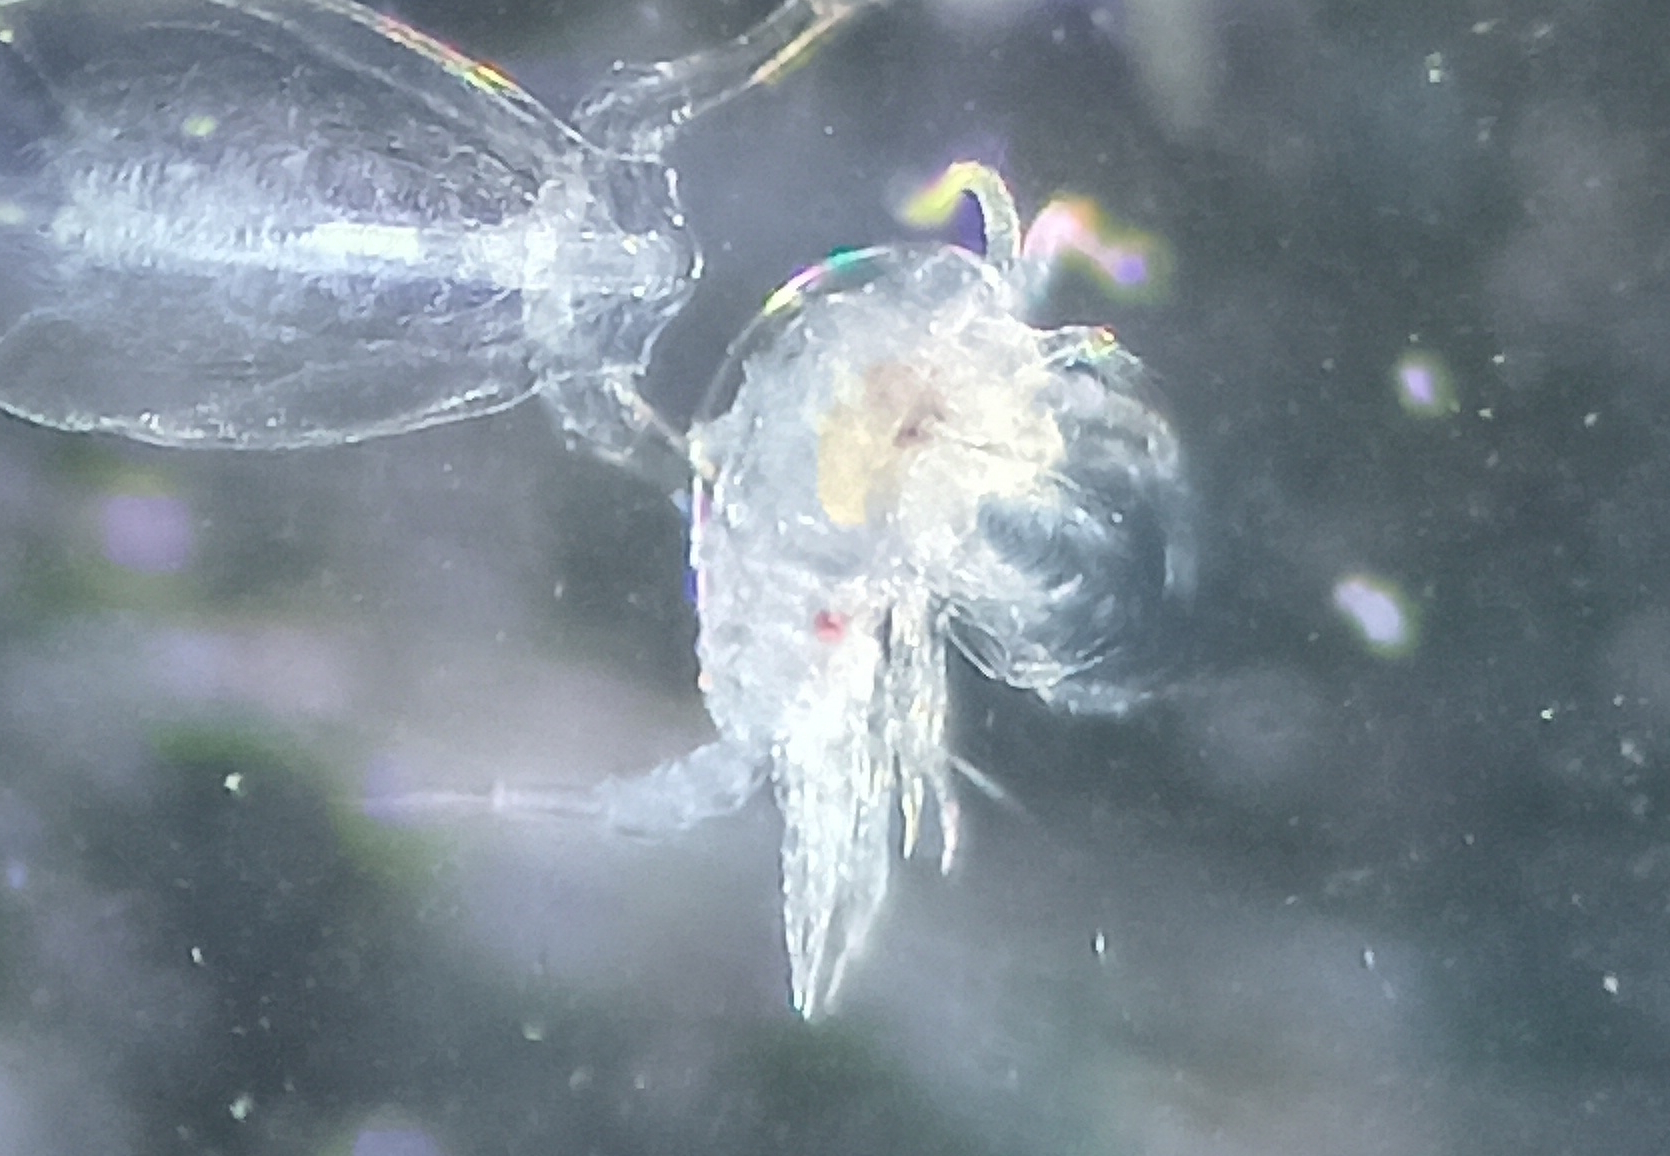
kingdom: Animalia
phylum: Arthropoda
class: Copepoda
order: Calanoida
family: Temoridae
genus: Temora
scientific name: Temora turbinata
